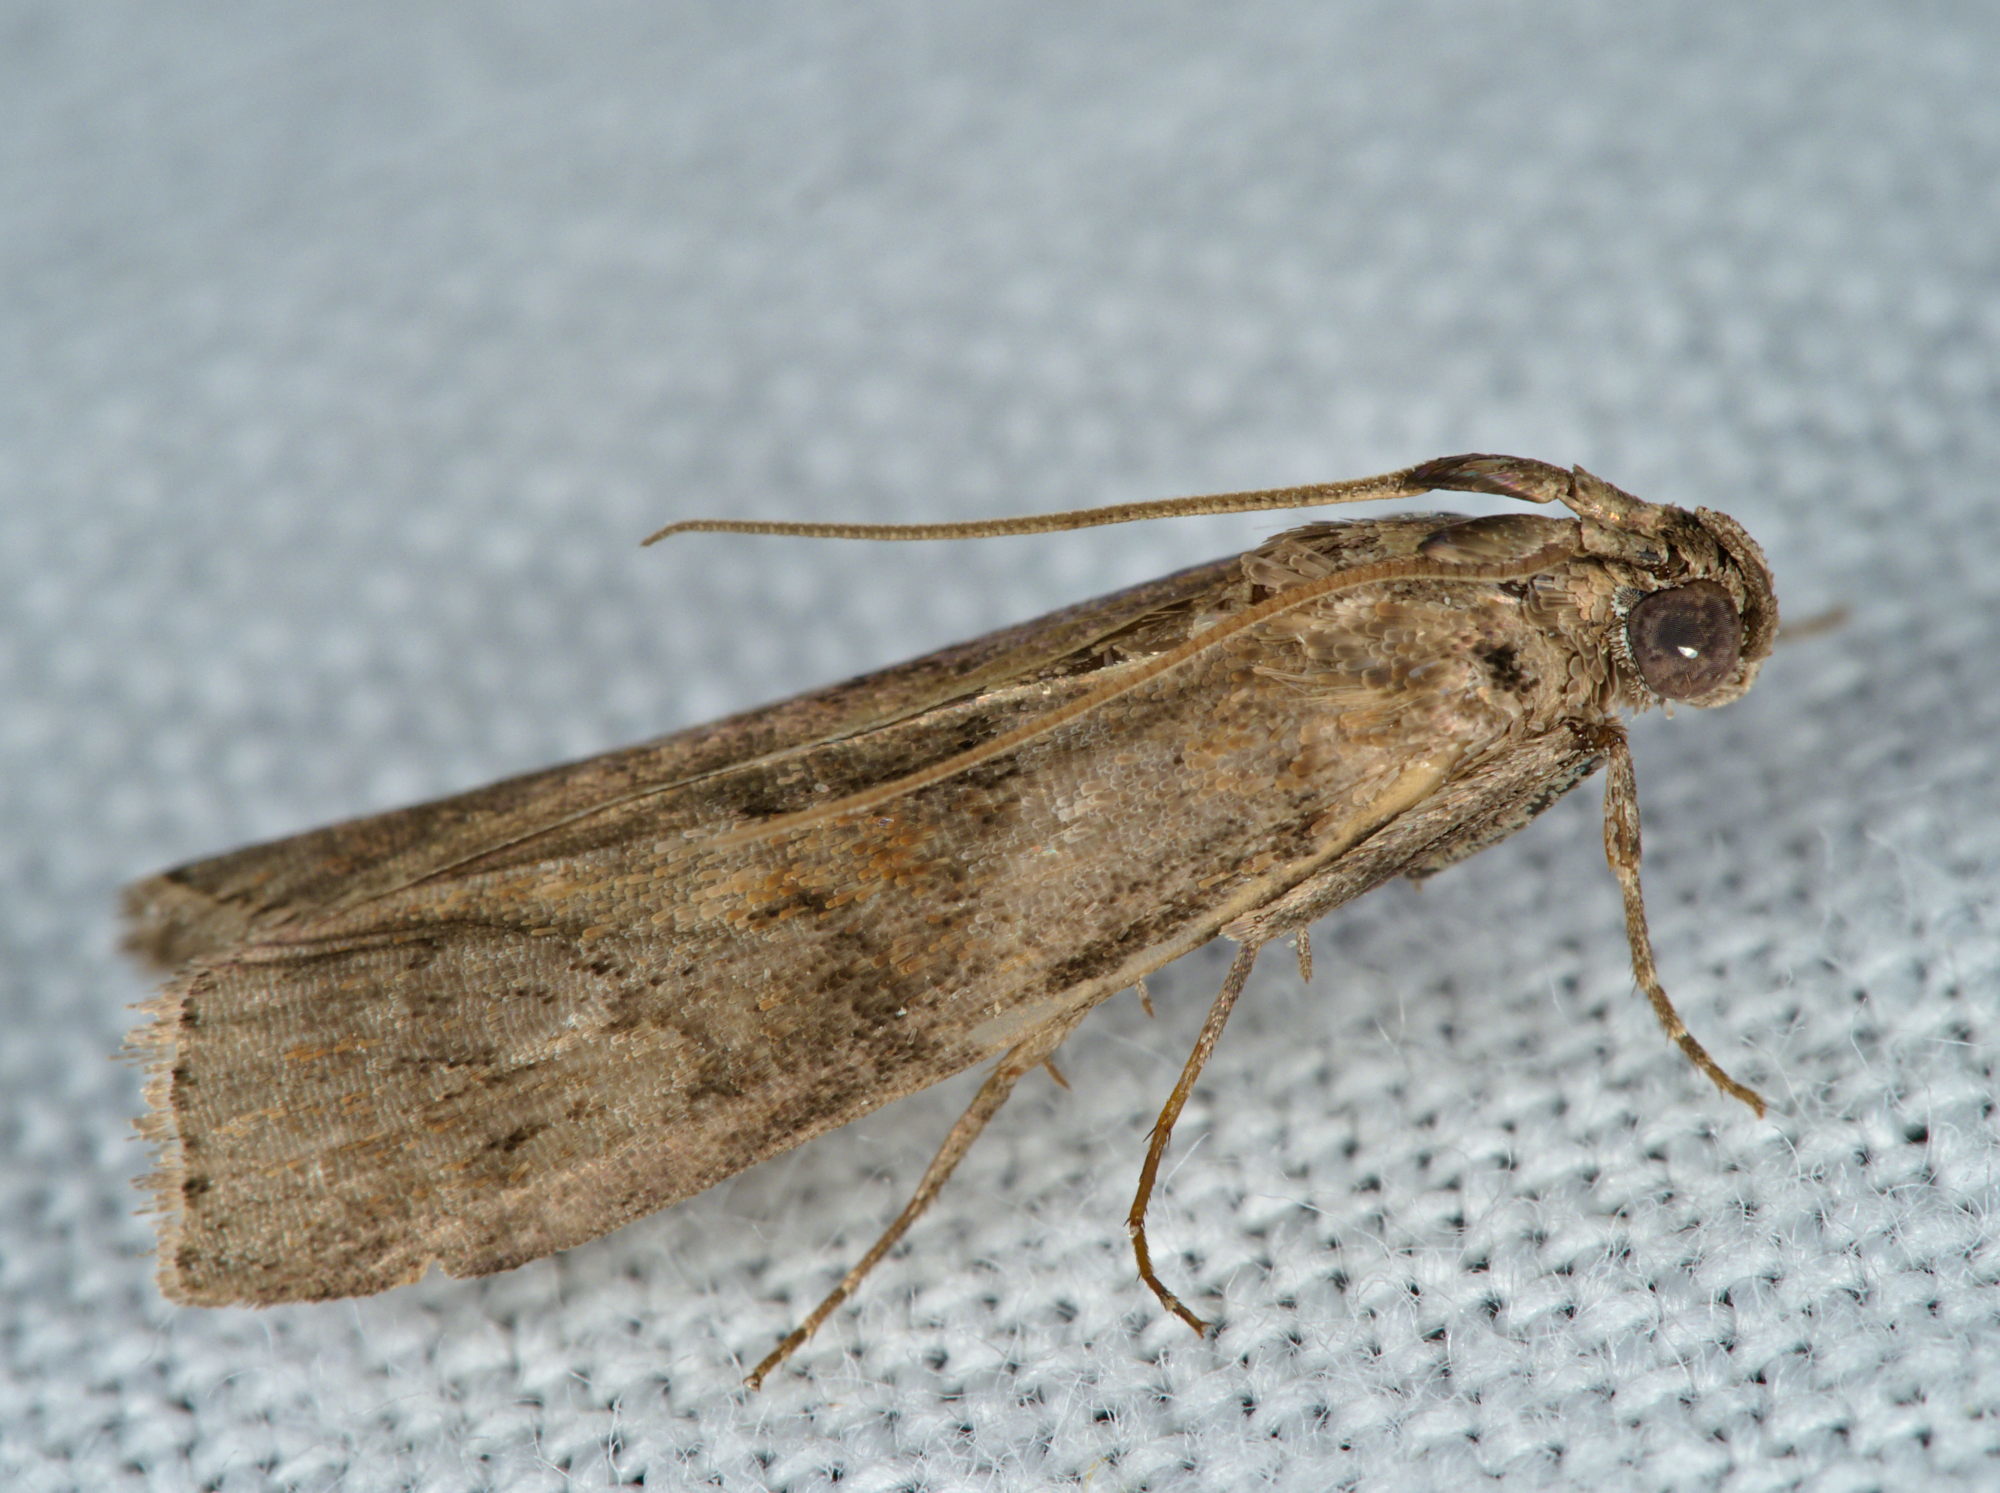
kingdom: Animalia
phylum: Arthropoda
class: Insecta
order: Lepidoptera
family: Pyralidae
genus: Phycita
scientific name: Phycita roborella
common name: Dotted oak knot-horn
